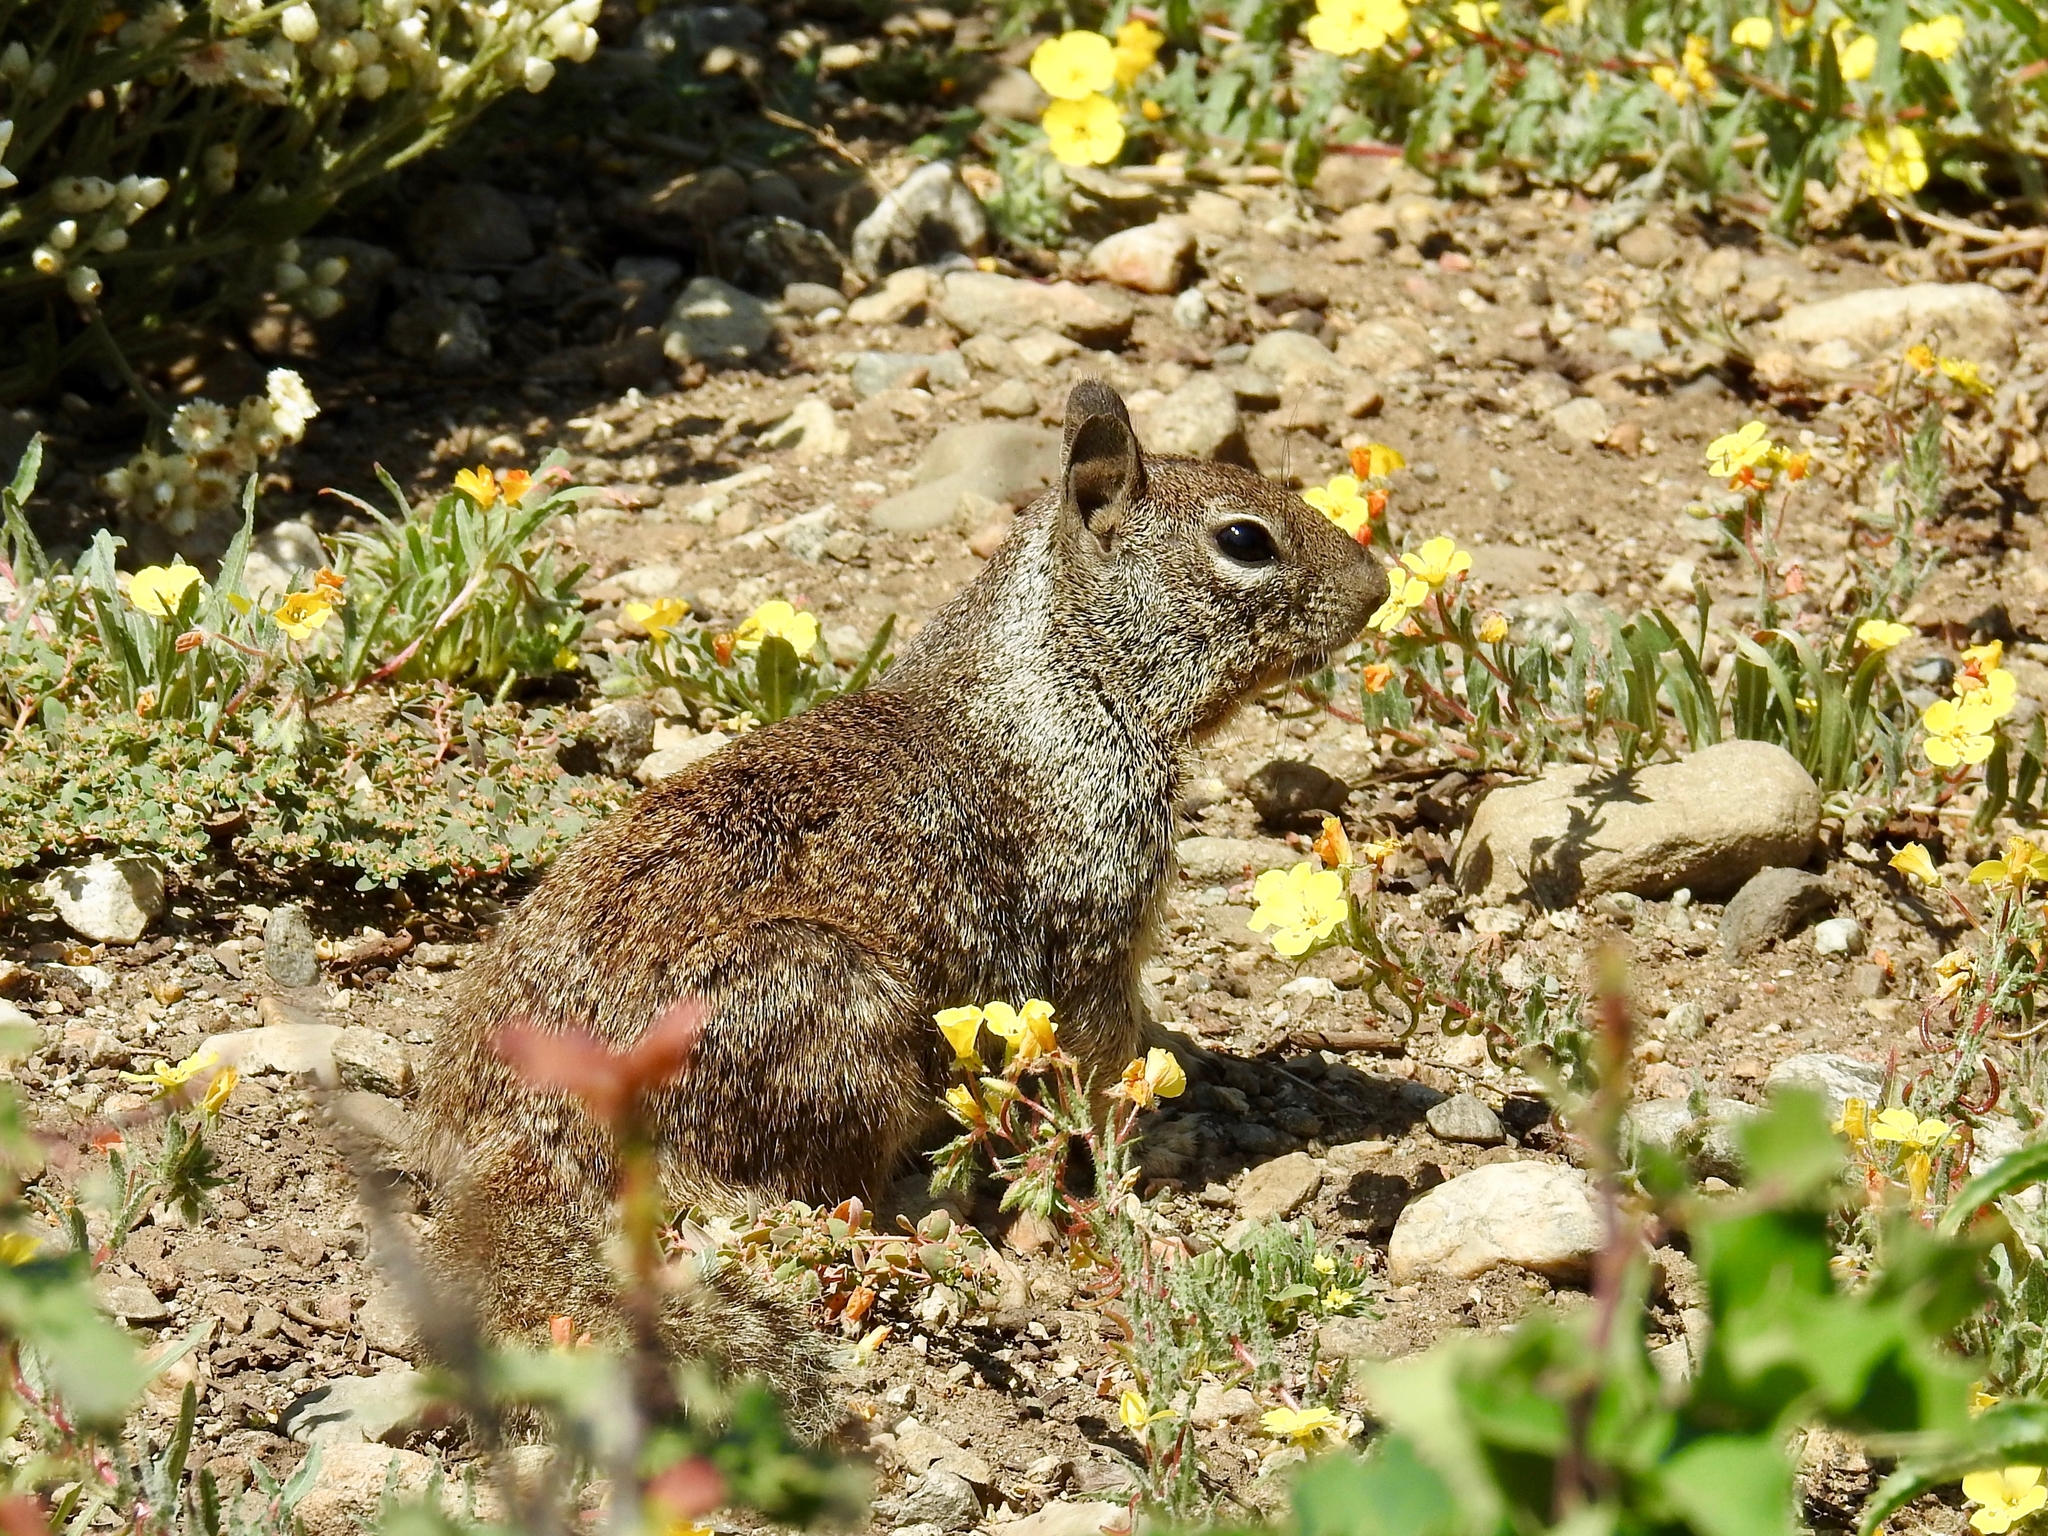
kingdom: Animalia
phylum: Chordata
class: Mammalia
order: Rodentia
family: Sciuridae
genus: Otospermophilus
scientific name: Otospermophilus beecheyi
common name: California ground squirrel
